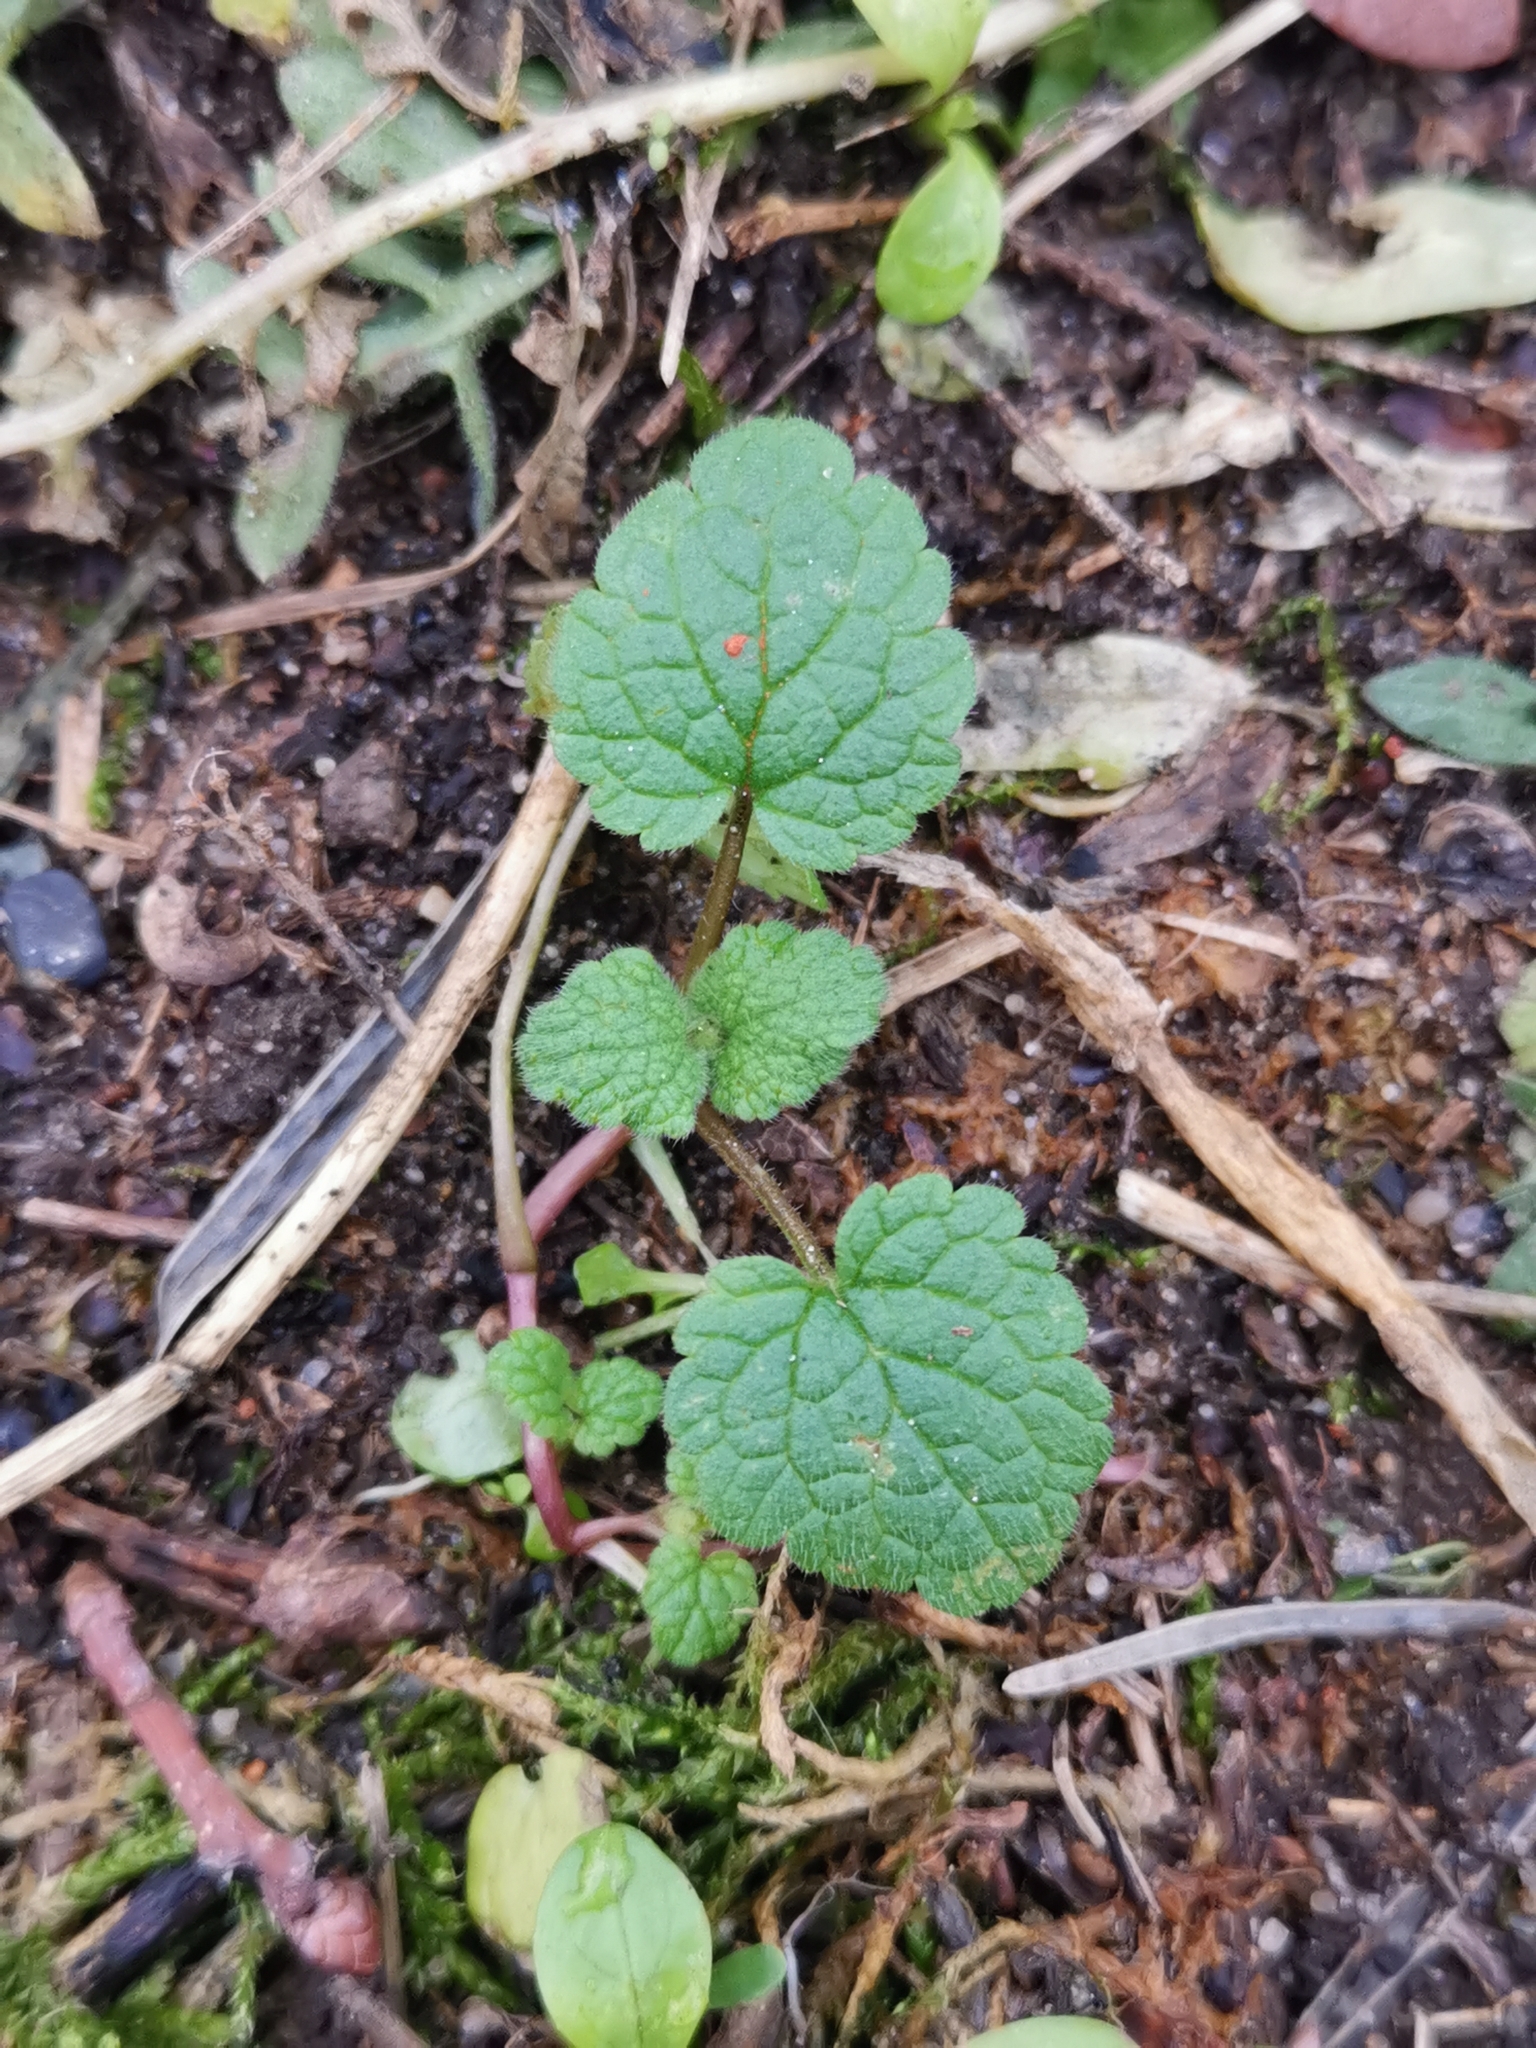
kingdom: Plantae
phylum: Tracheophyta
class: Magnoliopsida
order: Lamiales
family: Lamiaceae
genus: Lamium
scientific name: Lamium purpureum
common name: Red dead-nettle
